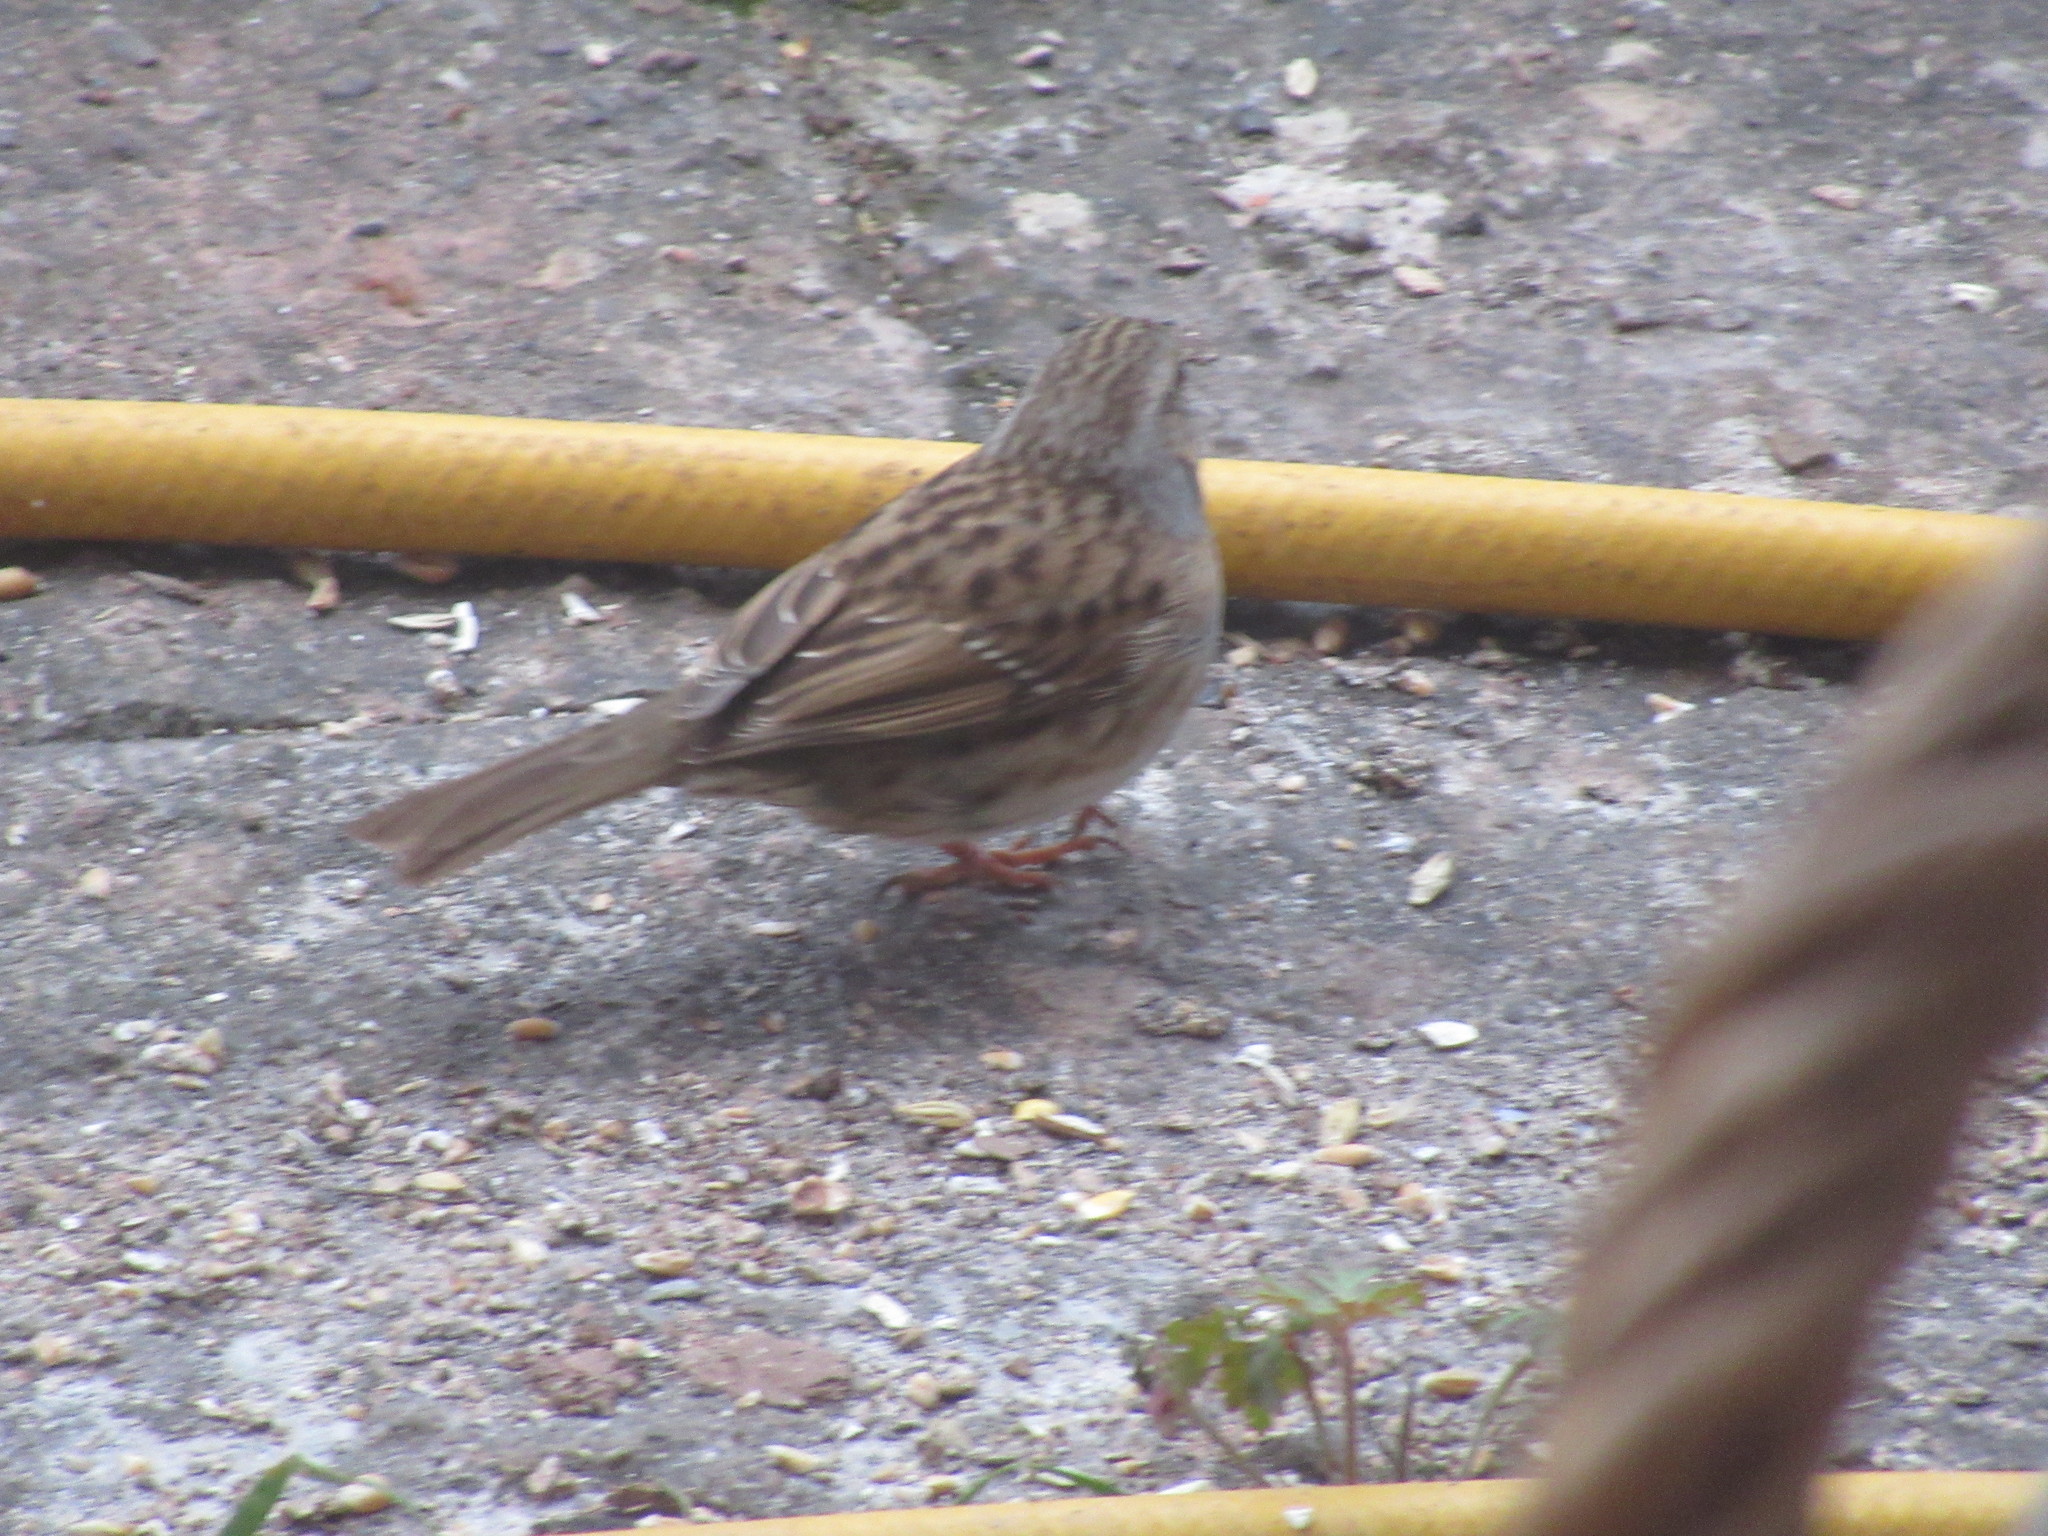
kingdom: Animalia
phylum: Chordata
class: Aves
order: Passeriformes
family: Prunellidae
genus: Prunella
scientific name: Prunella modularis
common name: Dunnock
